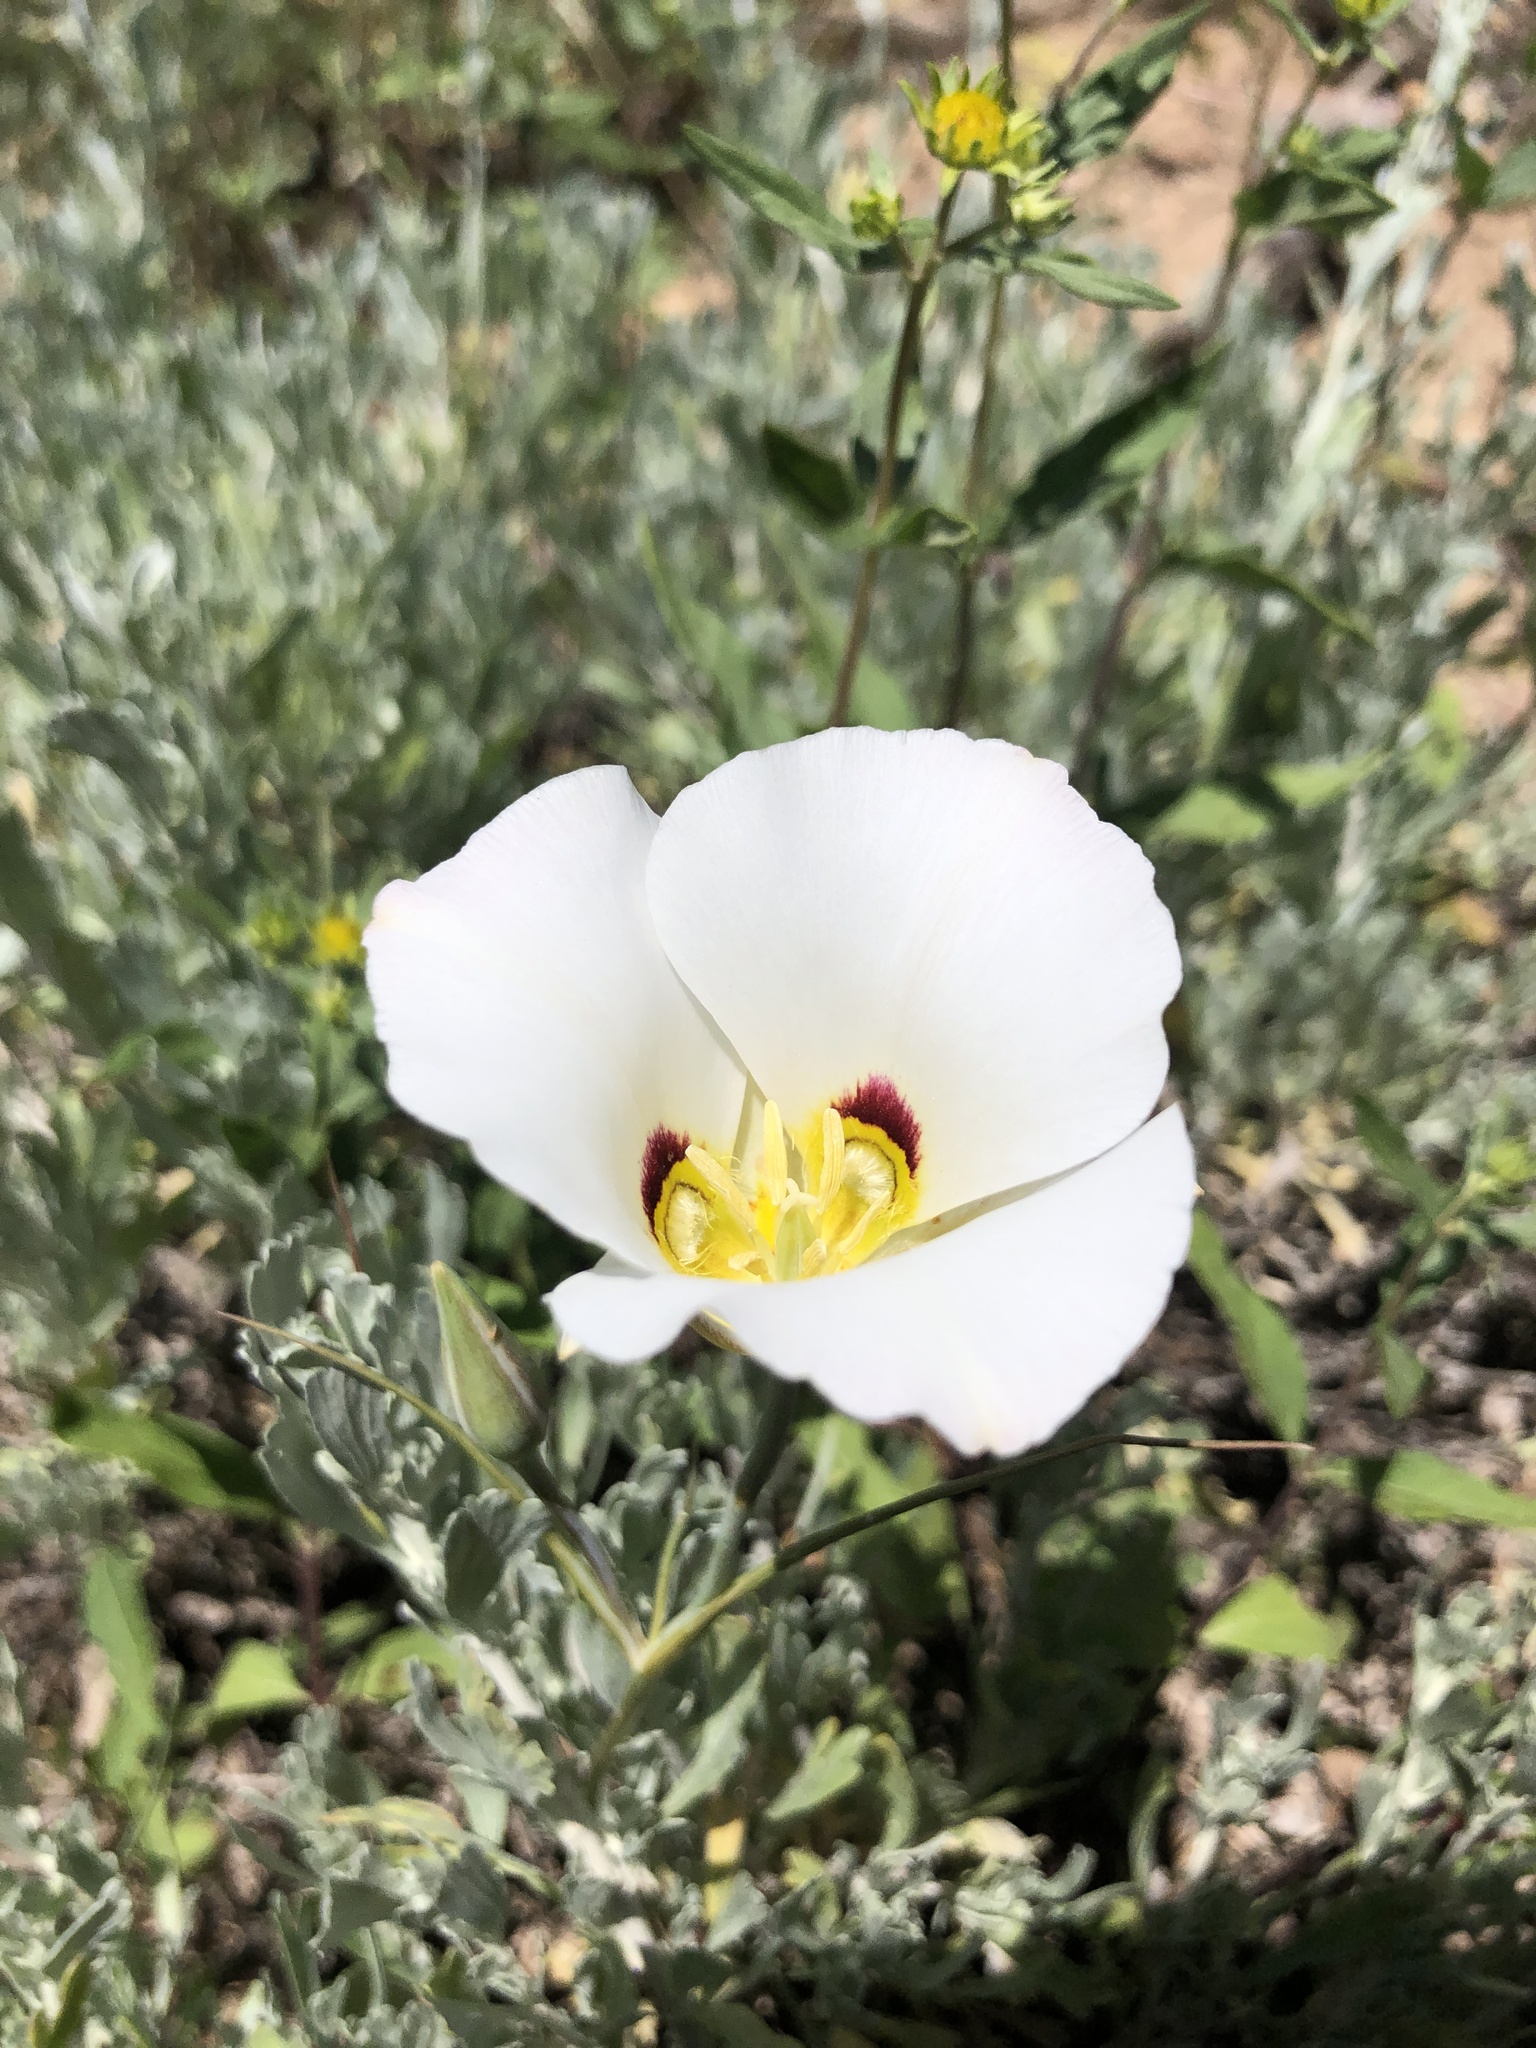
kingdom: Plantae
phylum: Tracheophyta
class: Liliopsida
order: Liliales
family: Liliaceae
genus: Calochortus
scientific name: Calochortus nuttallii
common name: Sego-lily
